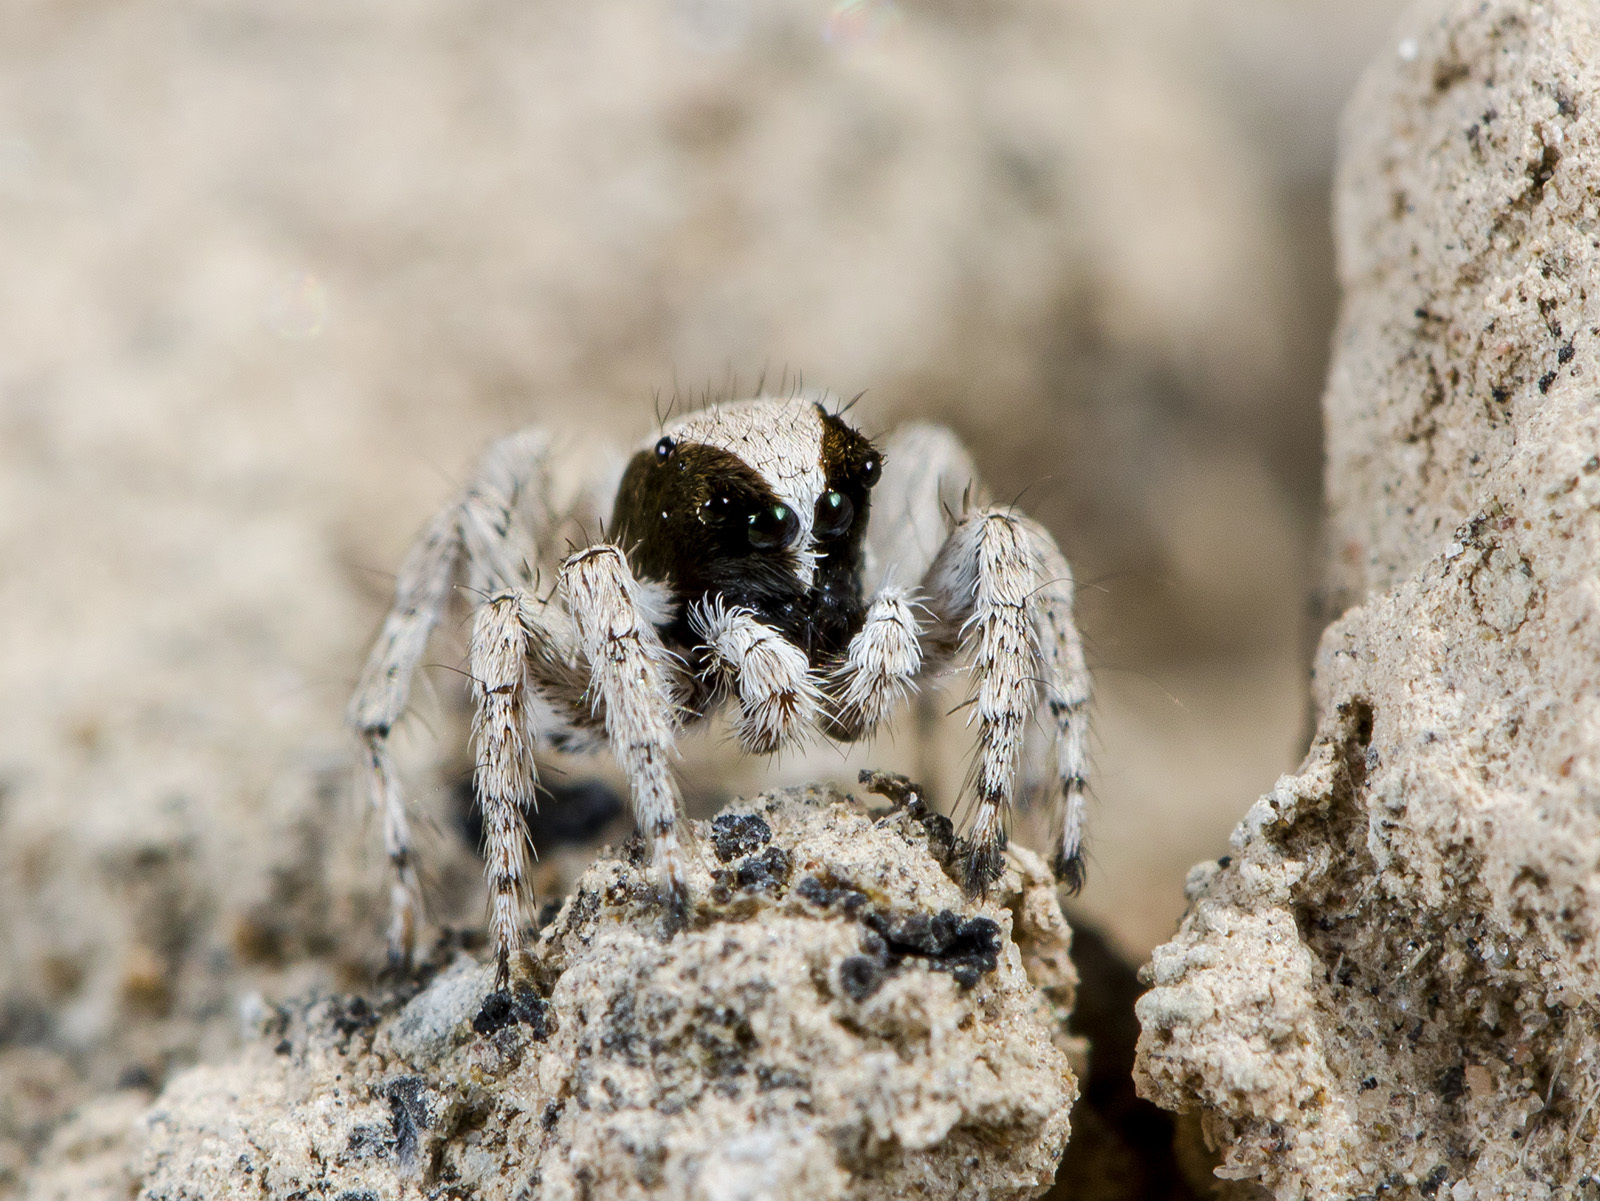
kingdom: Animalia
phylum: Arthropoda
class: Arachnida
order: Araneae
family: Salticidae
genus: Aelurillus
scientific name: Aelurillus andreevae
